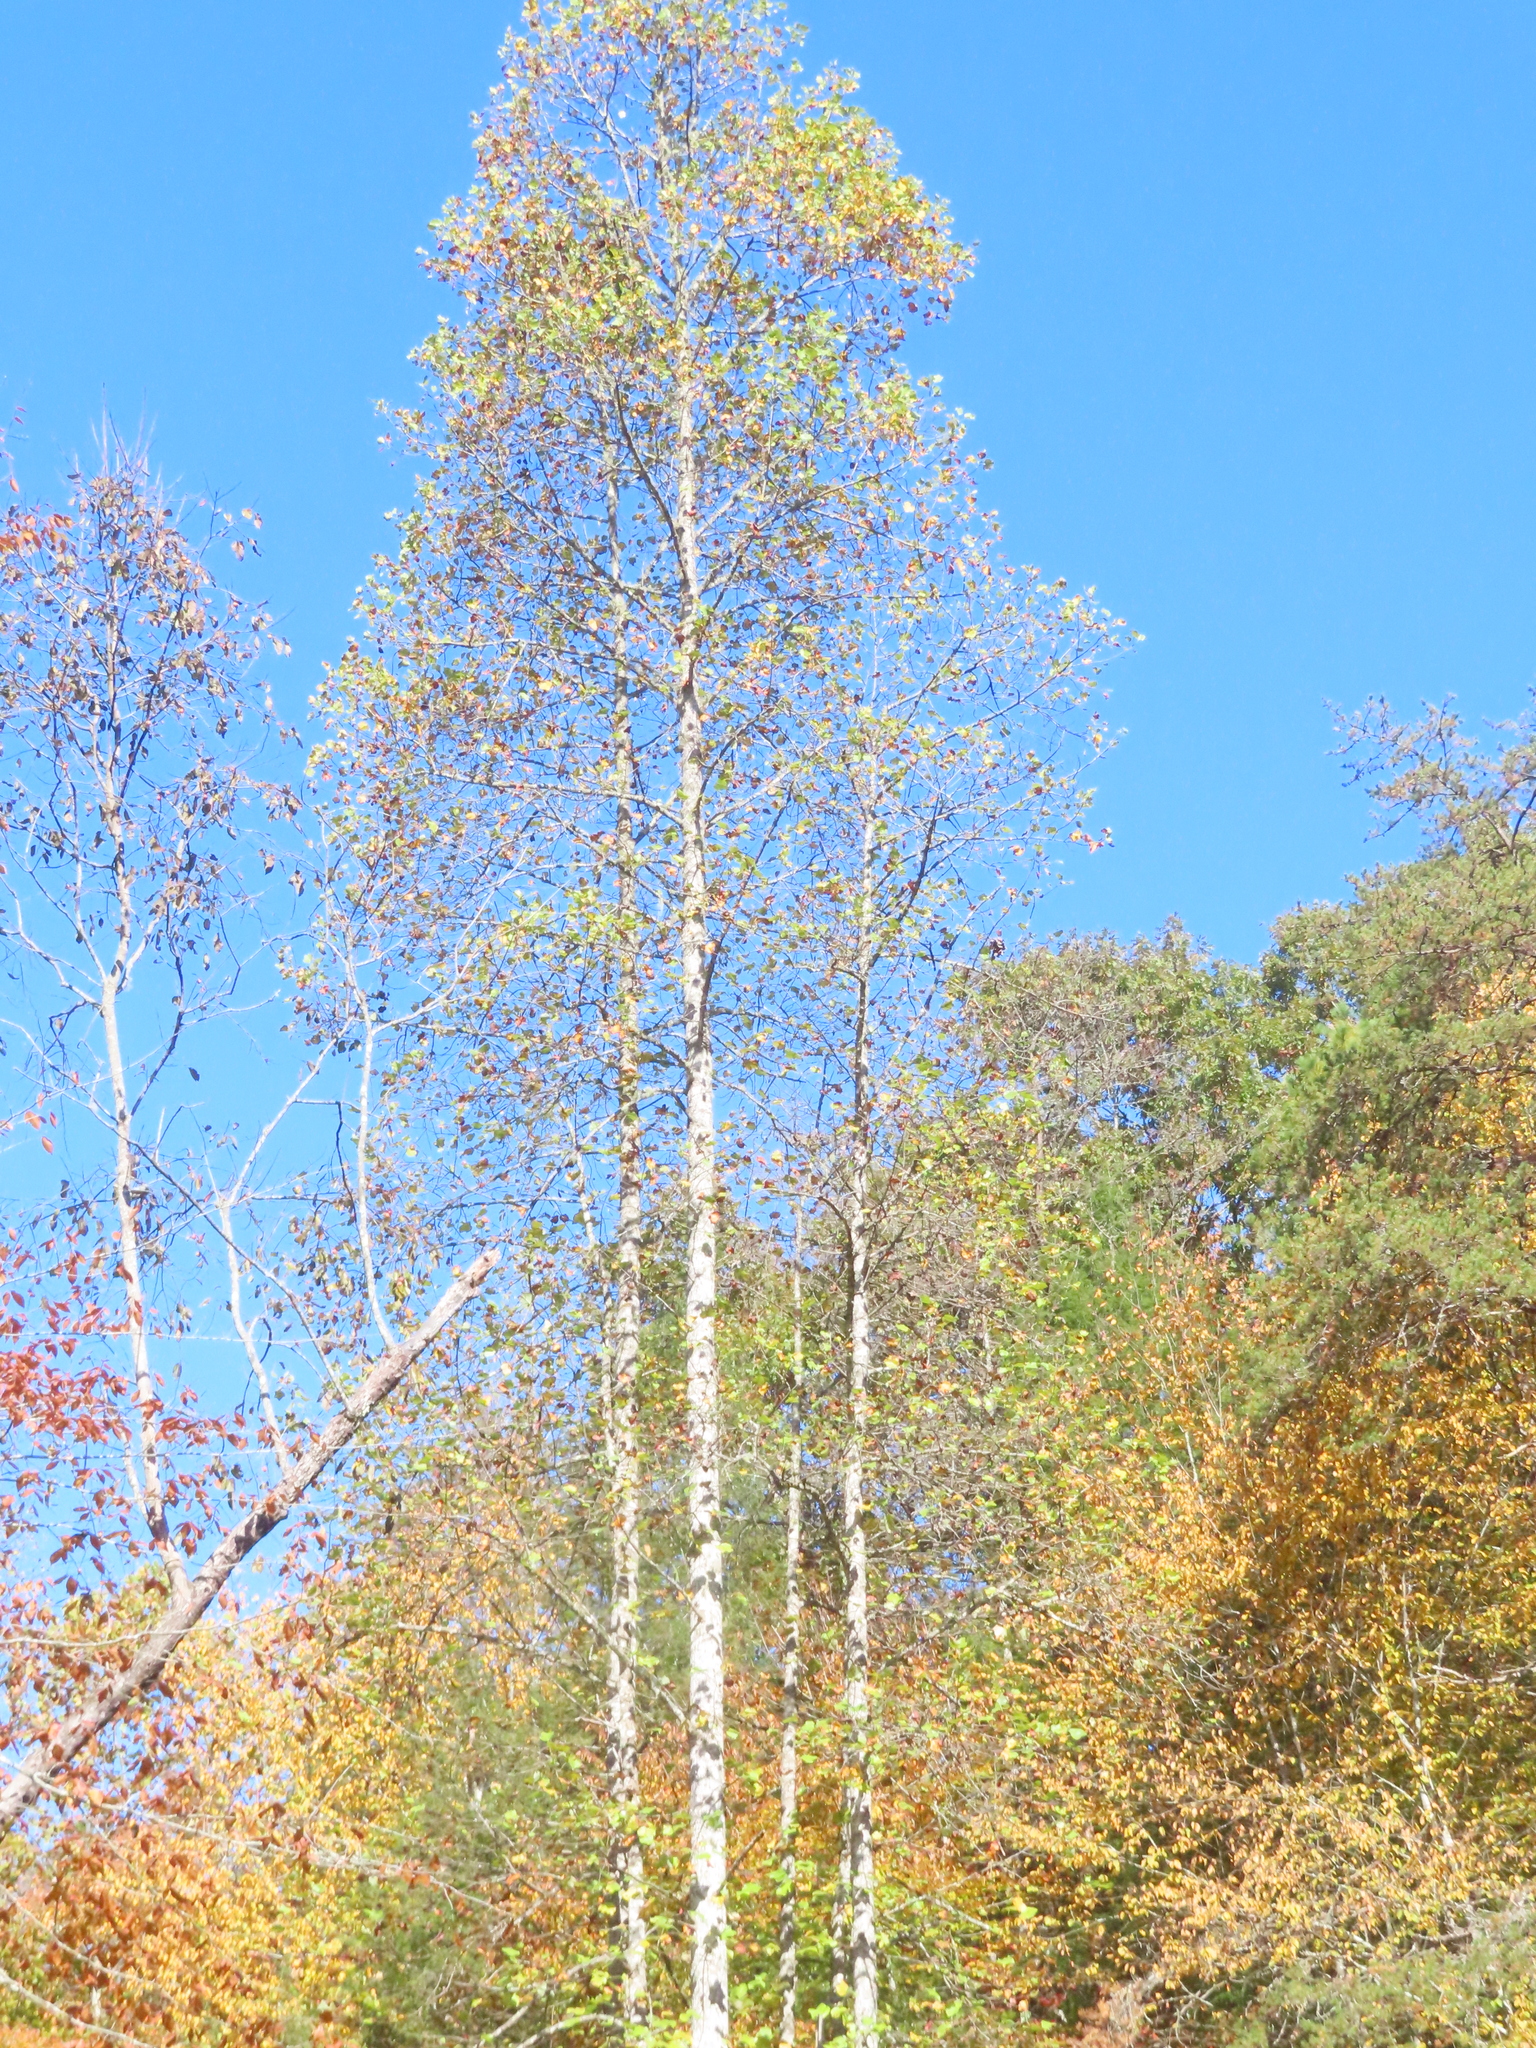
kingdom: Plantae
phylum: Tracheophyta
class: Magnoliopsida
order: Magnoliales
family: Magnoliaceae
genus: Liriodendron
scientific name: Liriodendron tulipifera
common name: Tulip tree
